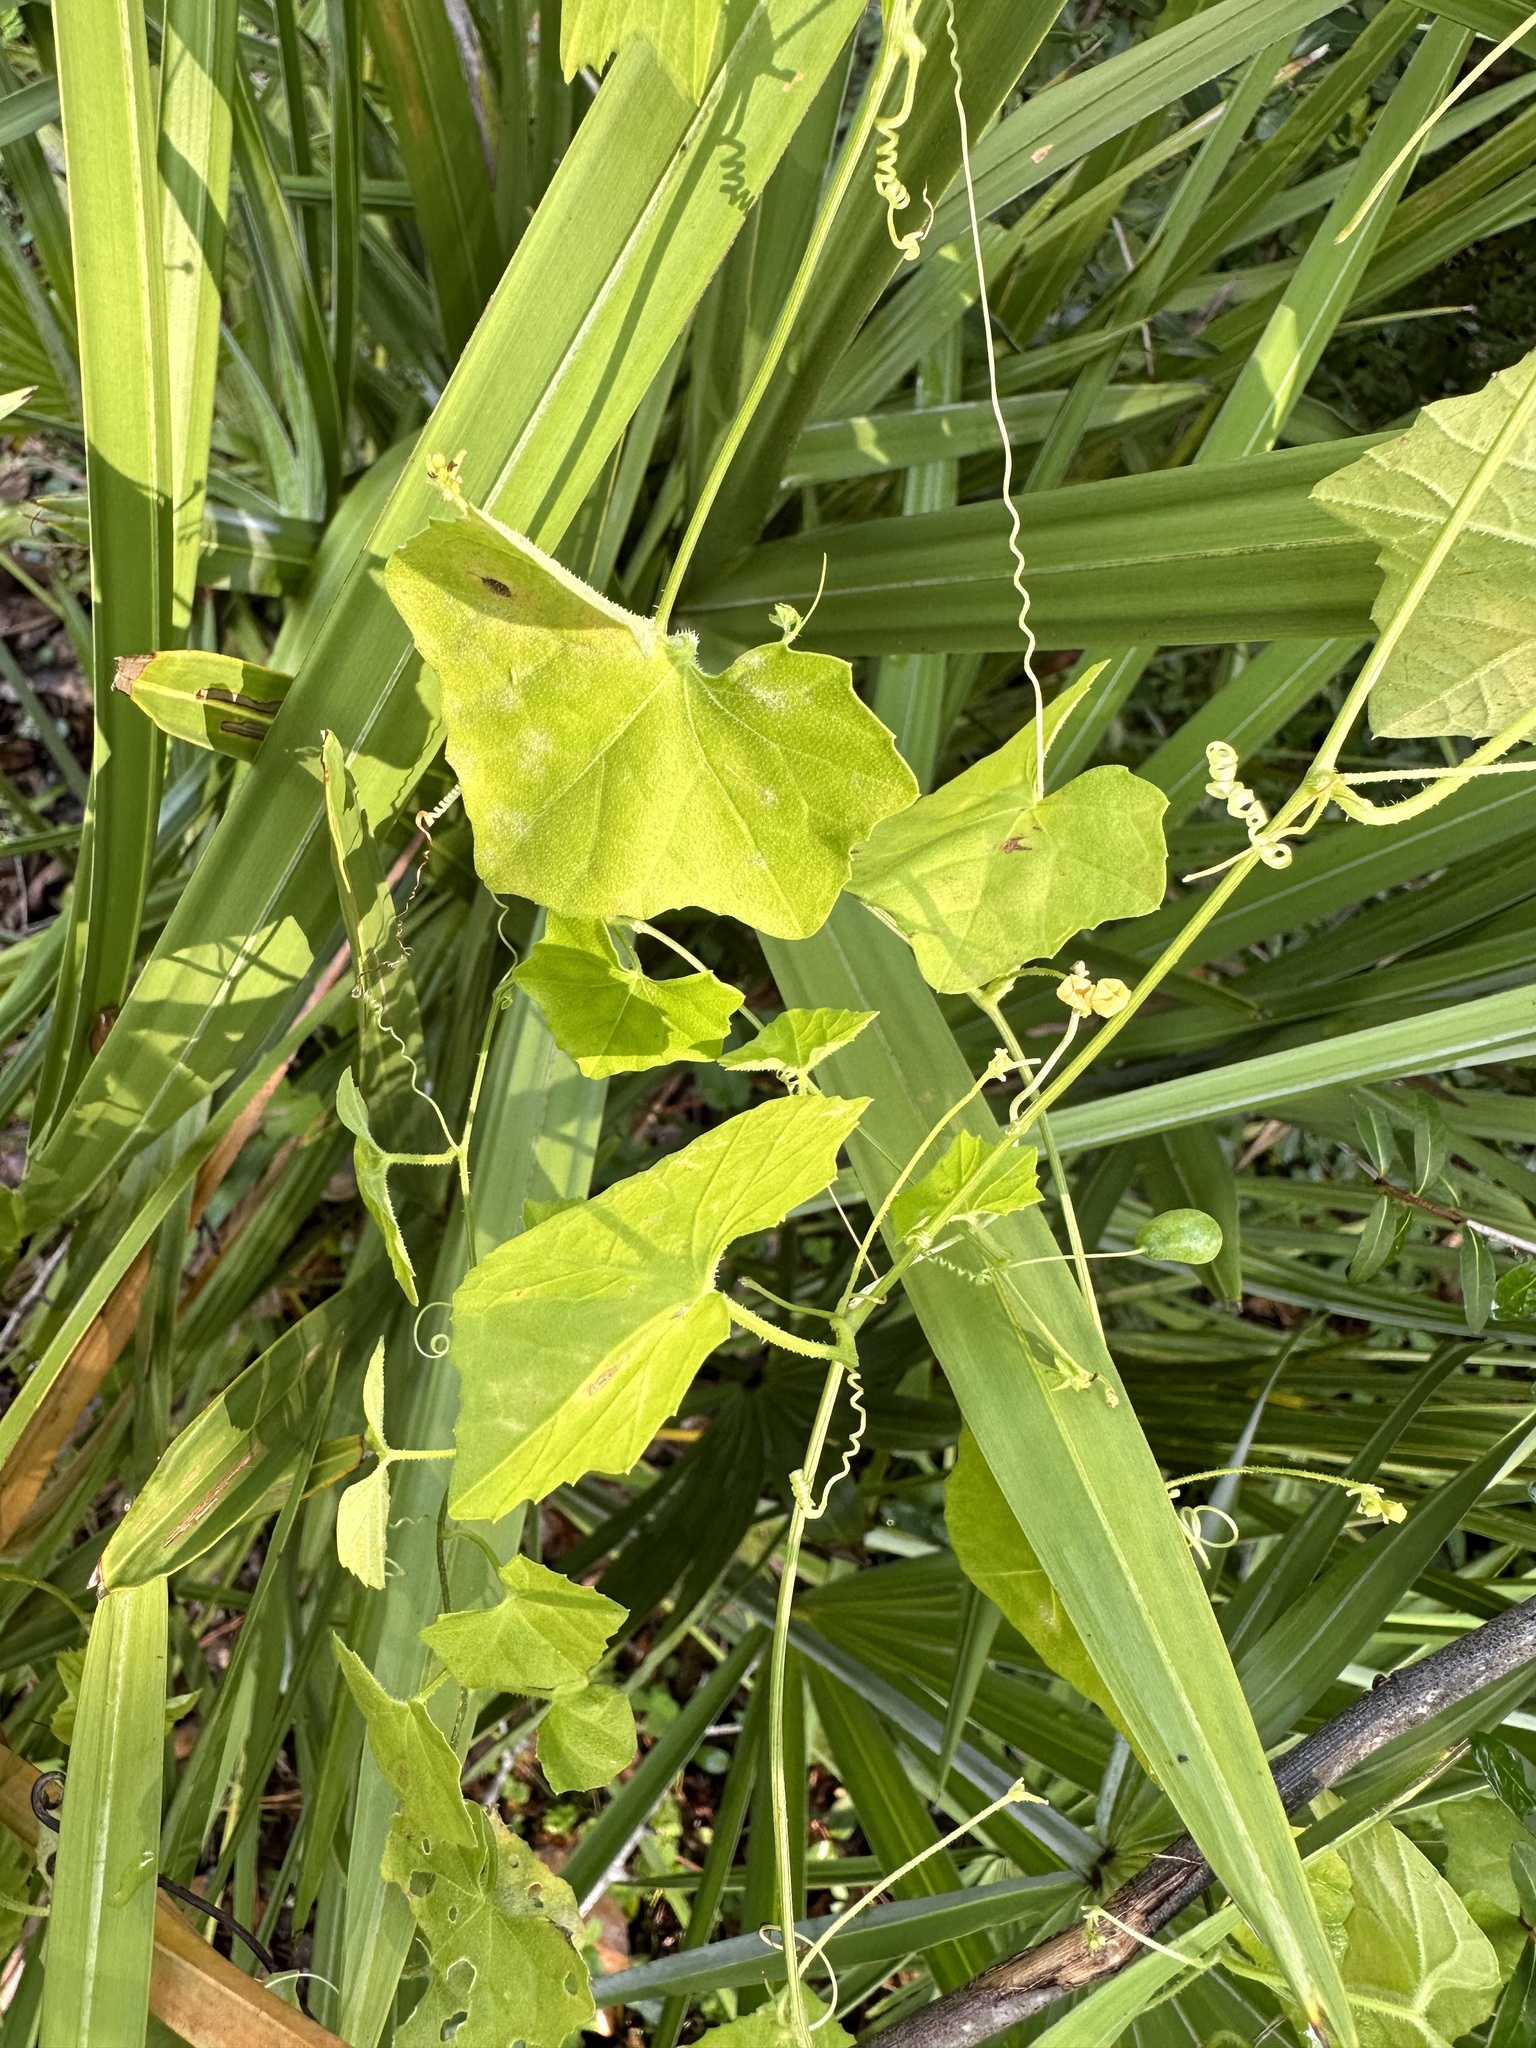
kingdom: Plantae
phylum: Tracheophyta
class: Magnoliopsida
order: Cucurbitales
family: Cucurbitaceae
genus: Melothria
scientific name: Melothria pendula
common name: Creeping-cucumber
